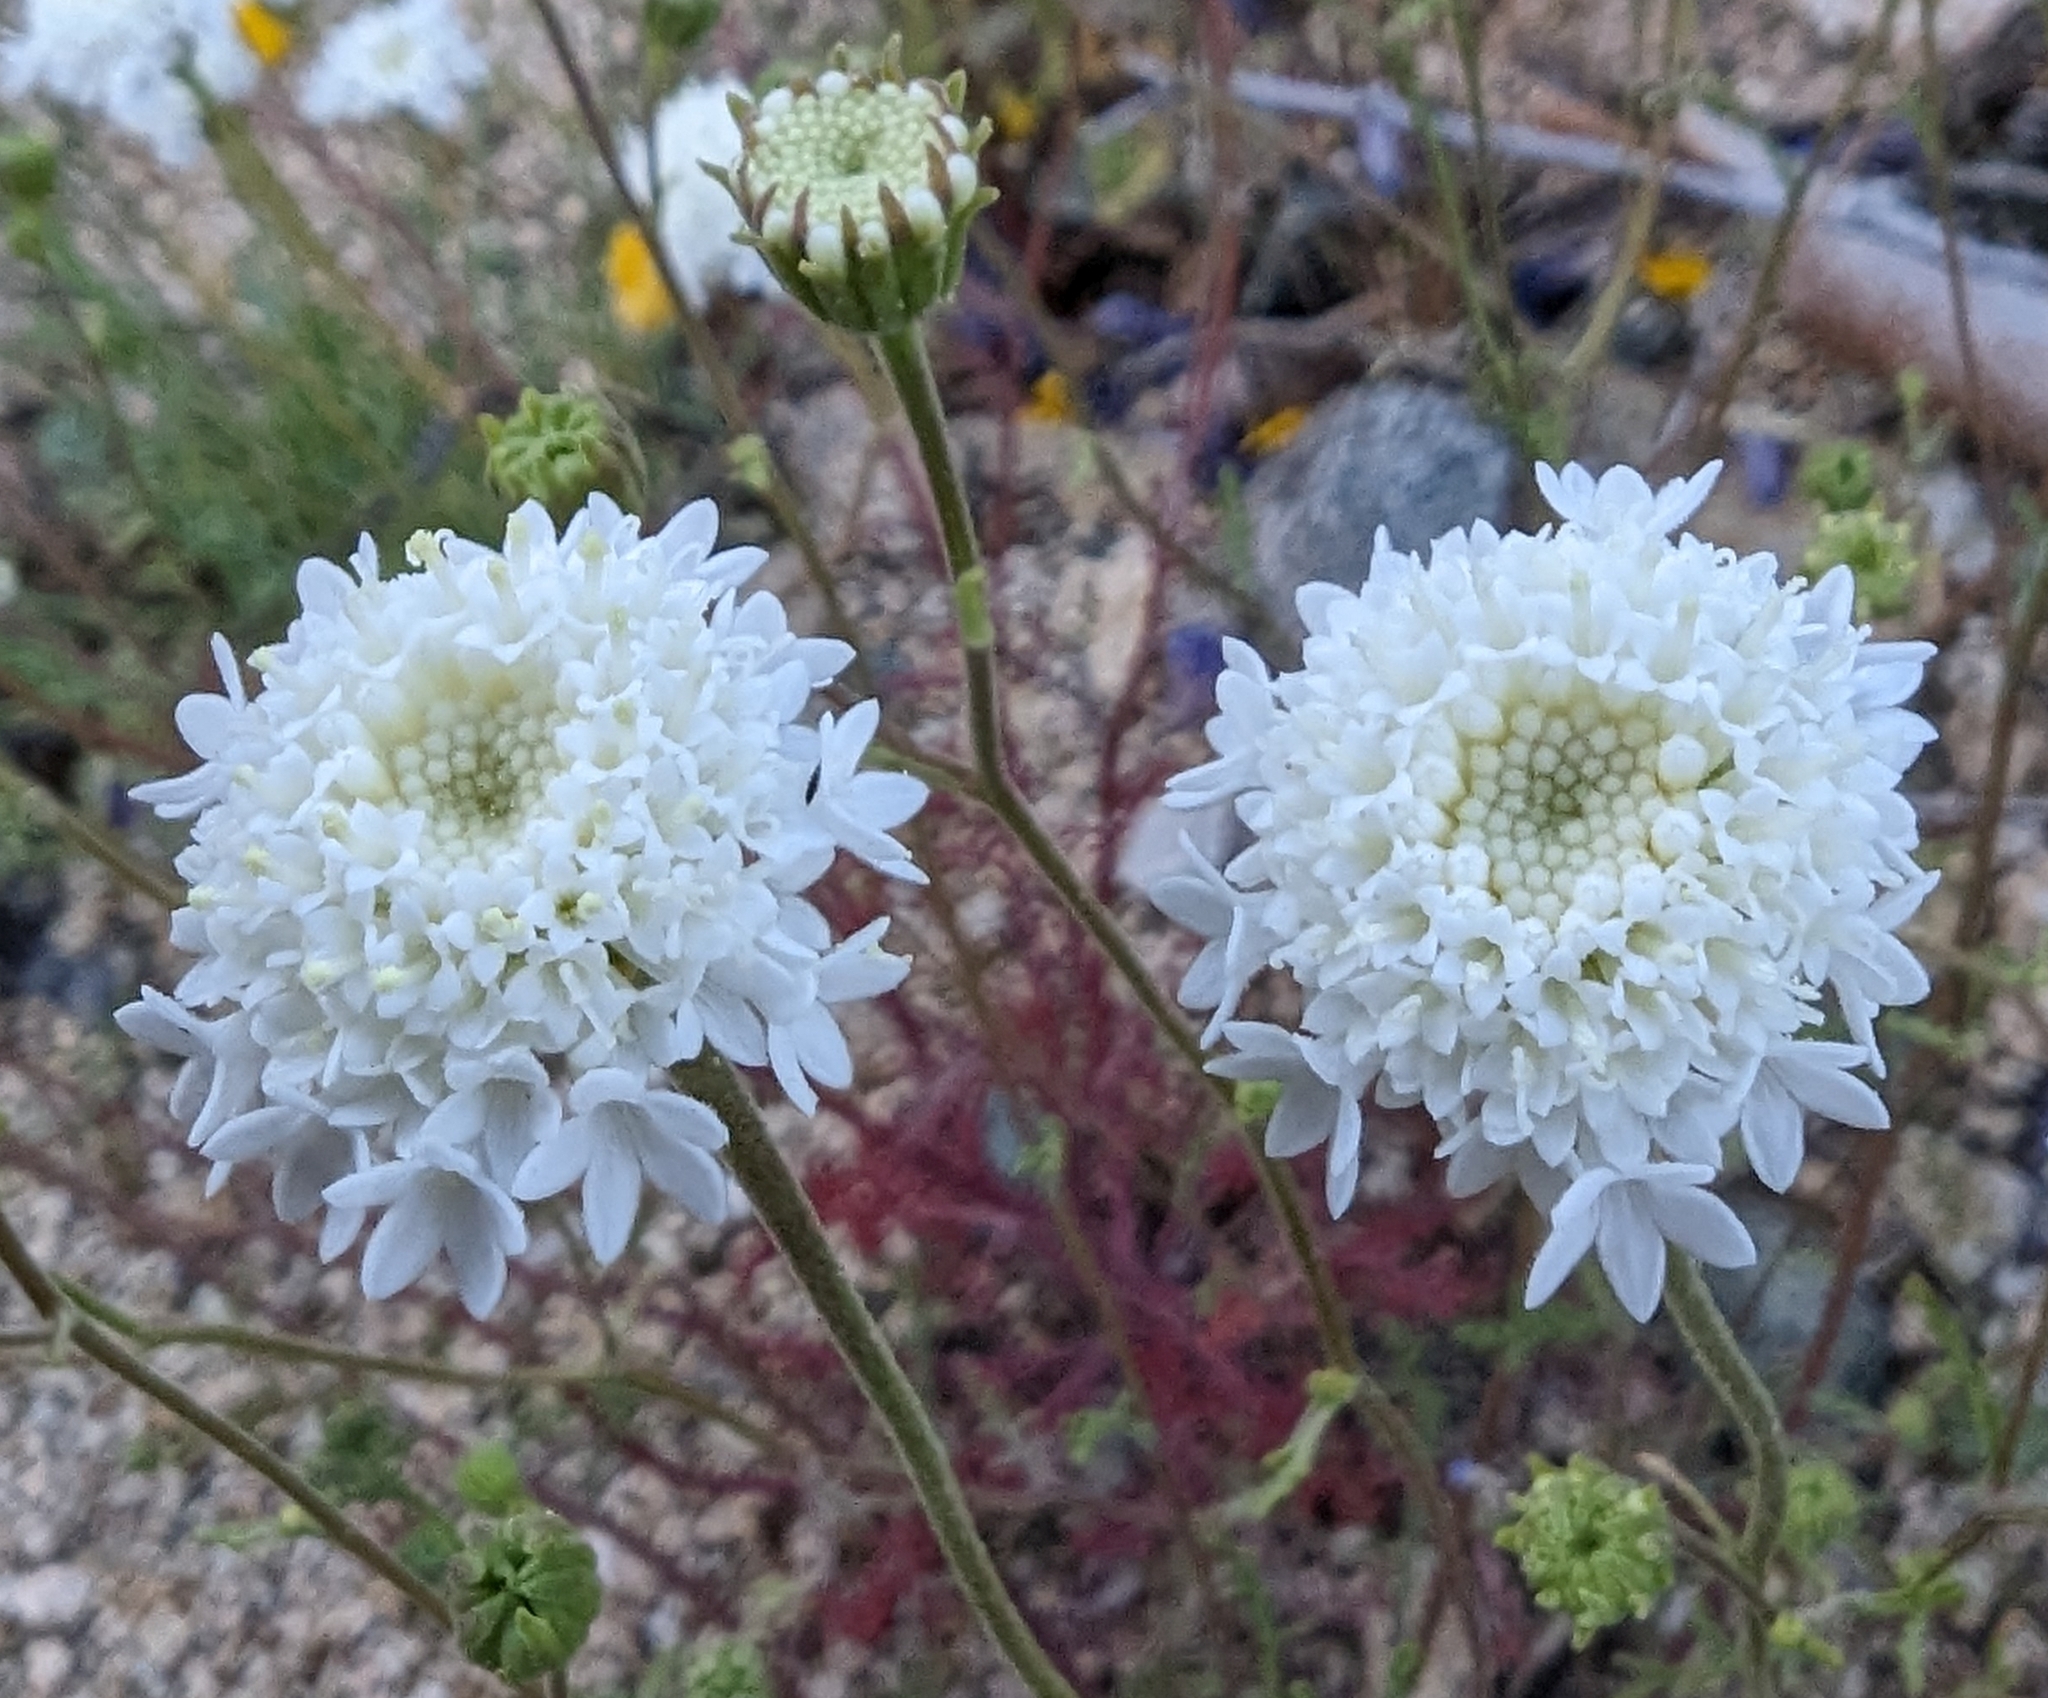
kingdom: Plantae
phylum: Tracheophyta
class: Magnoliopsida
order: Asterales
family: Asteraceae
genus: Chaenactis
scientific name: Chaenactis stevioides
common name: Desert pincushion
